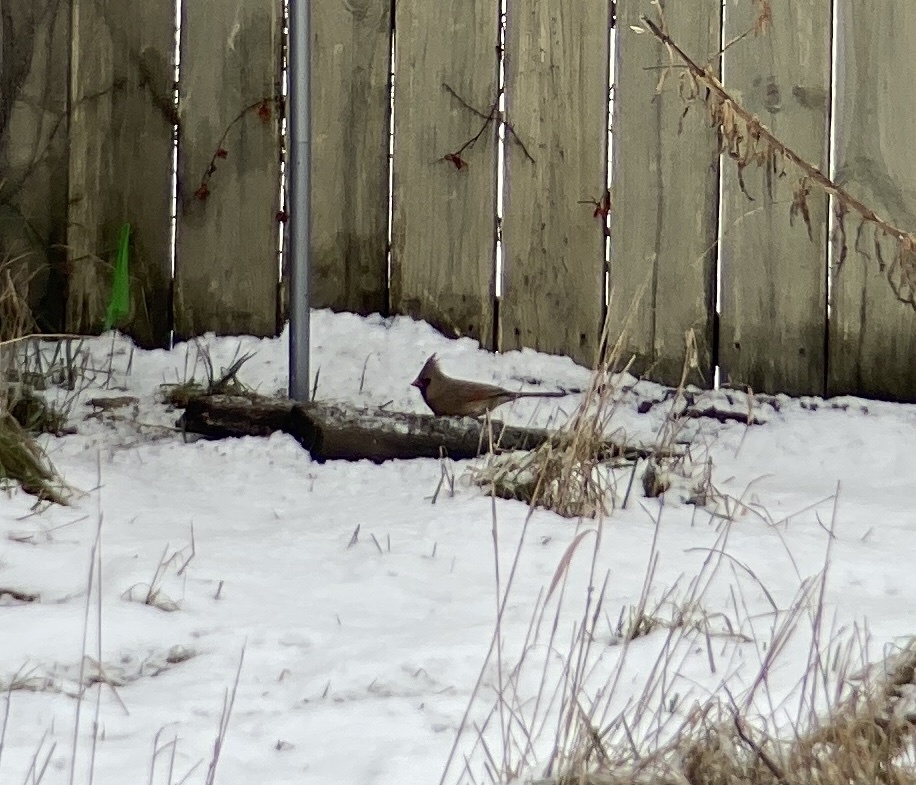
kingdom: Animalia
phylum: Chordata
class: Aves
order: Passeriformes
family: Cardinalidae
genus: Cardinalis
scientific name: Cardinalis cardinalis
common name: Northern cardinal
